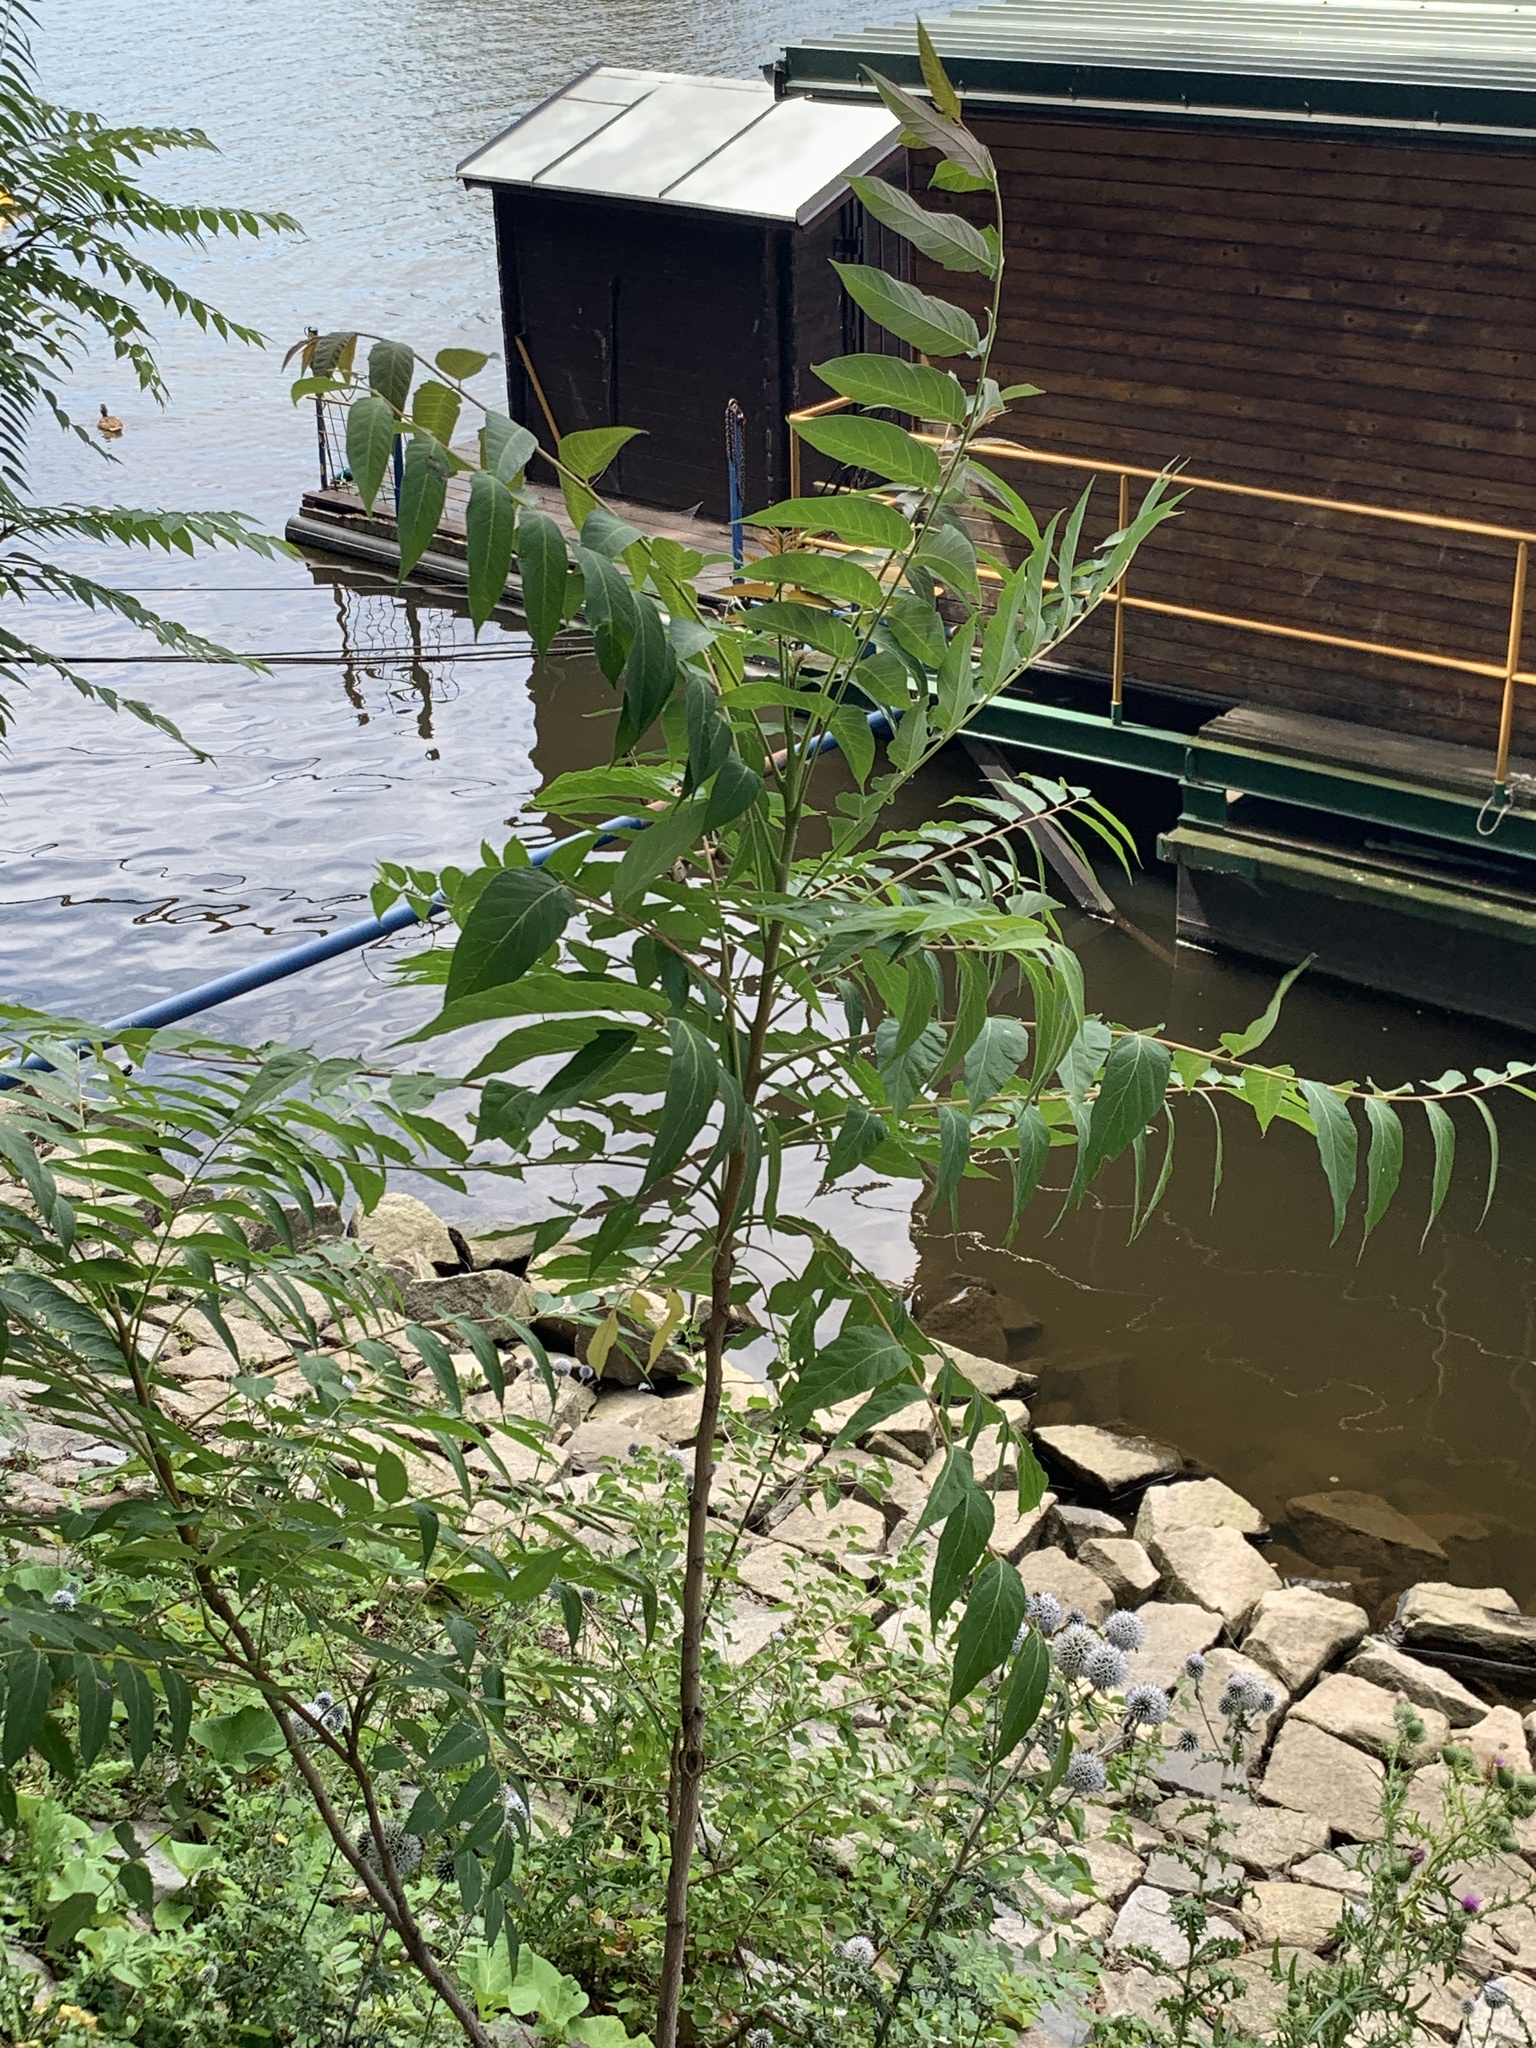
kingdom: Plantae
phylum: Tracheophyta
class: Magnoliopsida
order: Sapindales
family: Simaroubaceae
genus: Ailanthus
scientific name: Ailanthus altissima
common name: Tree-of-heaven
